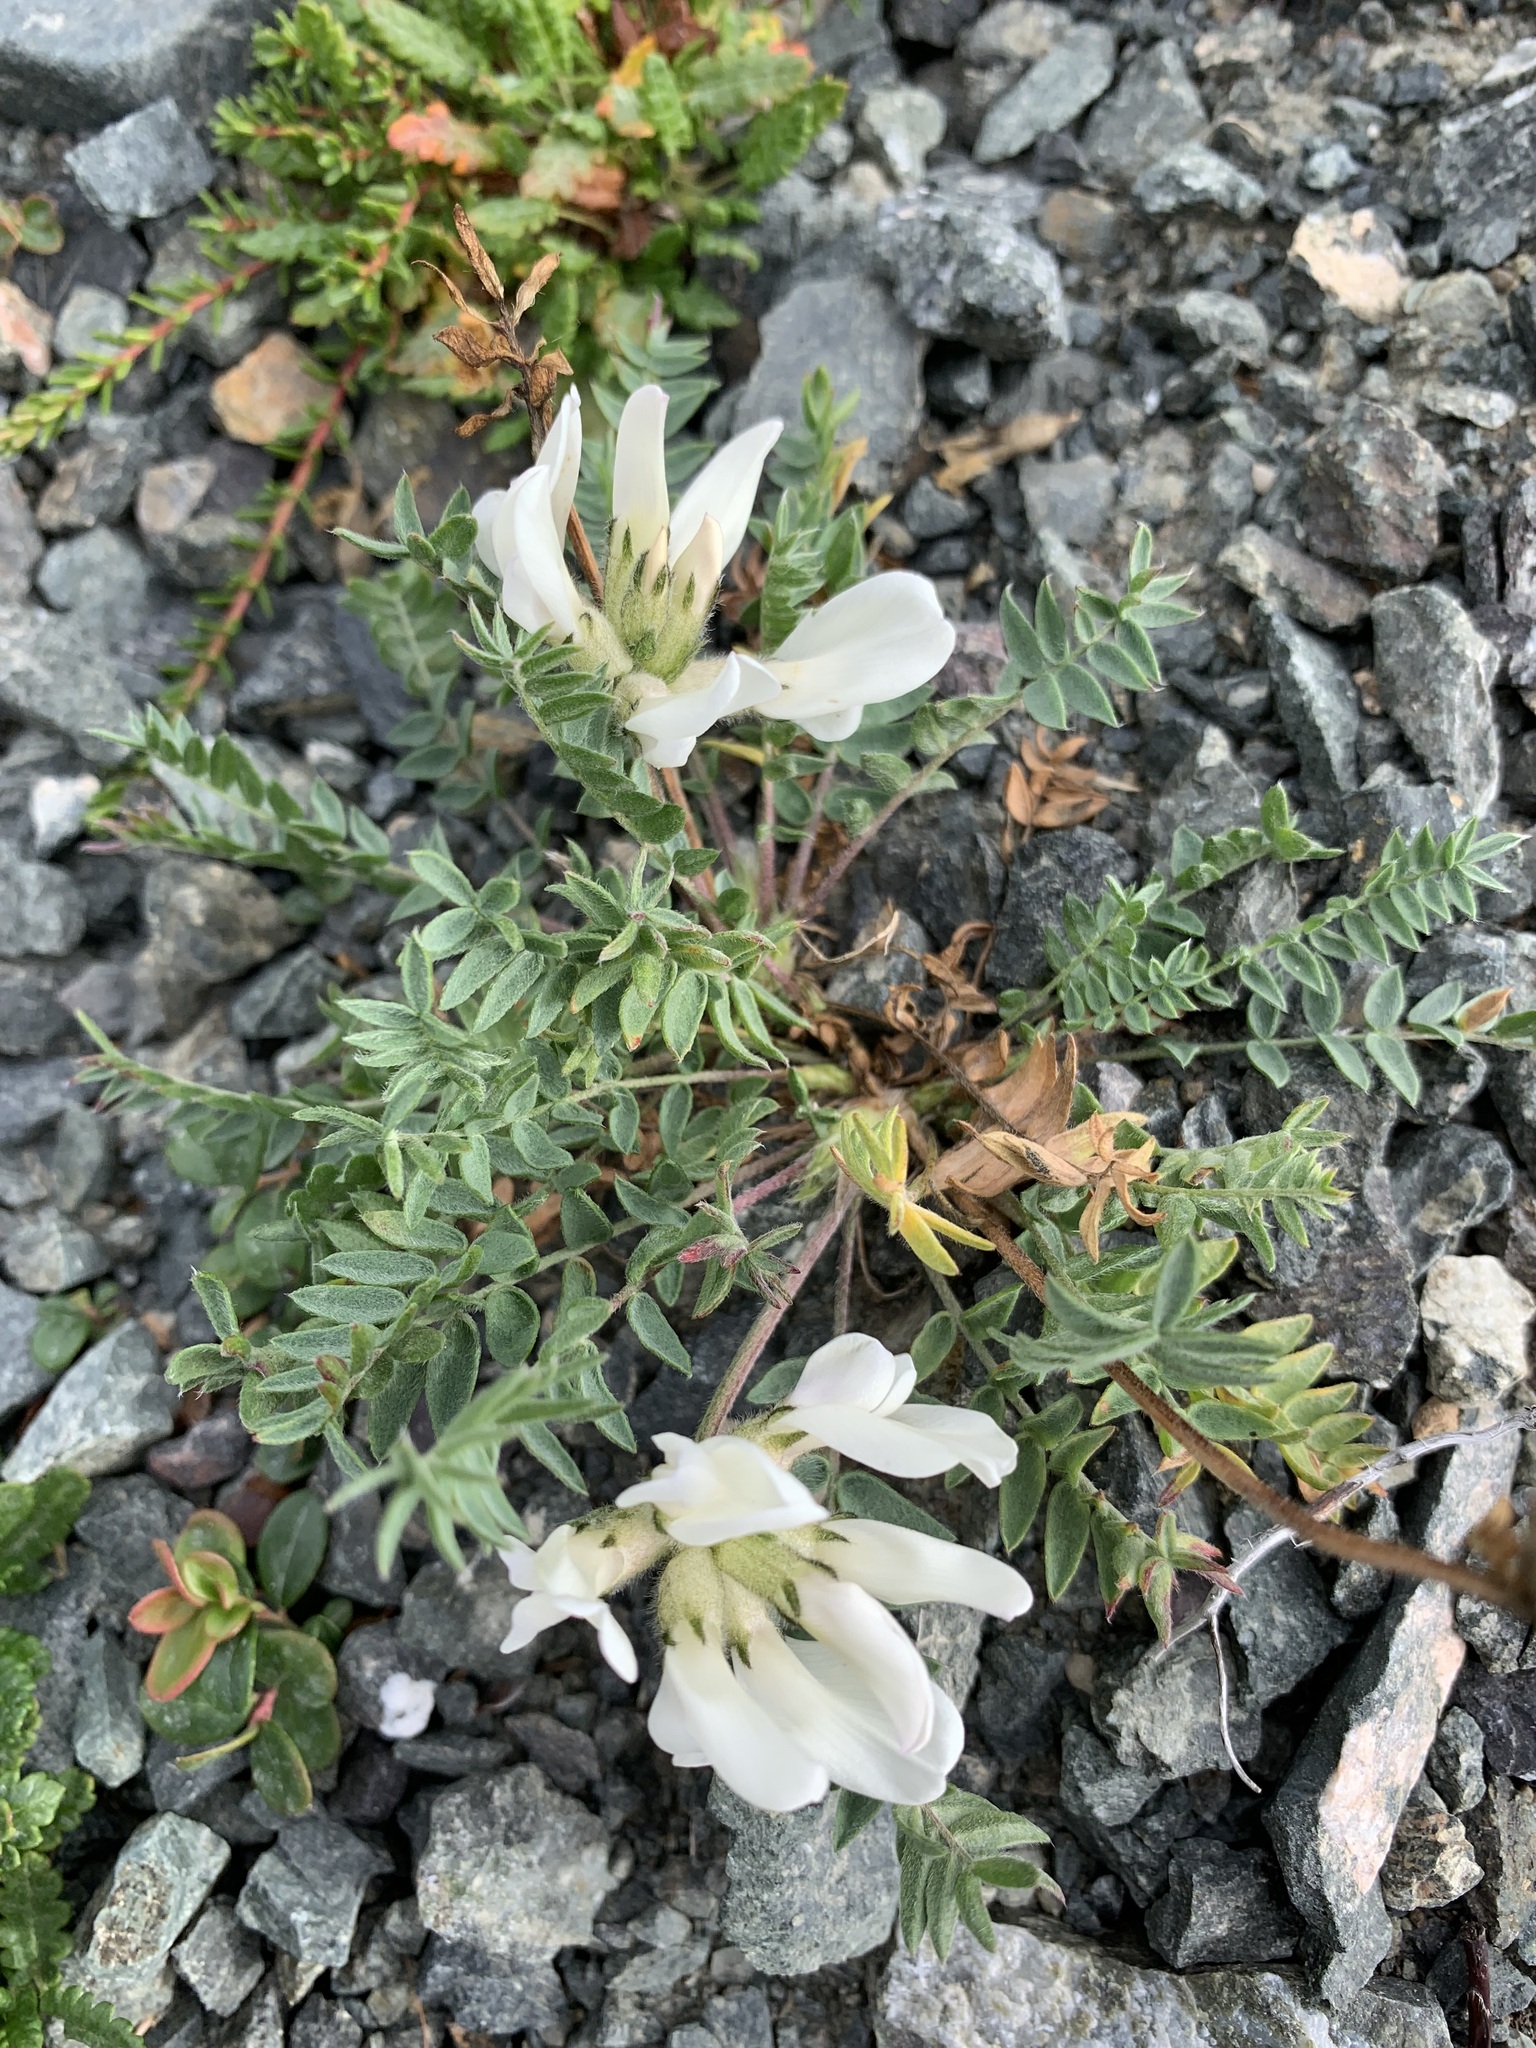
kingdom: Plantae
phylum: Tracheophyta
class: Magnoliopsida
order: Fabales
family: Fabaceae
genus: Oxytropis
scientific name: Oxytropis sordida
